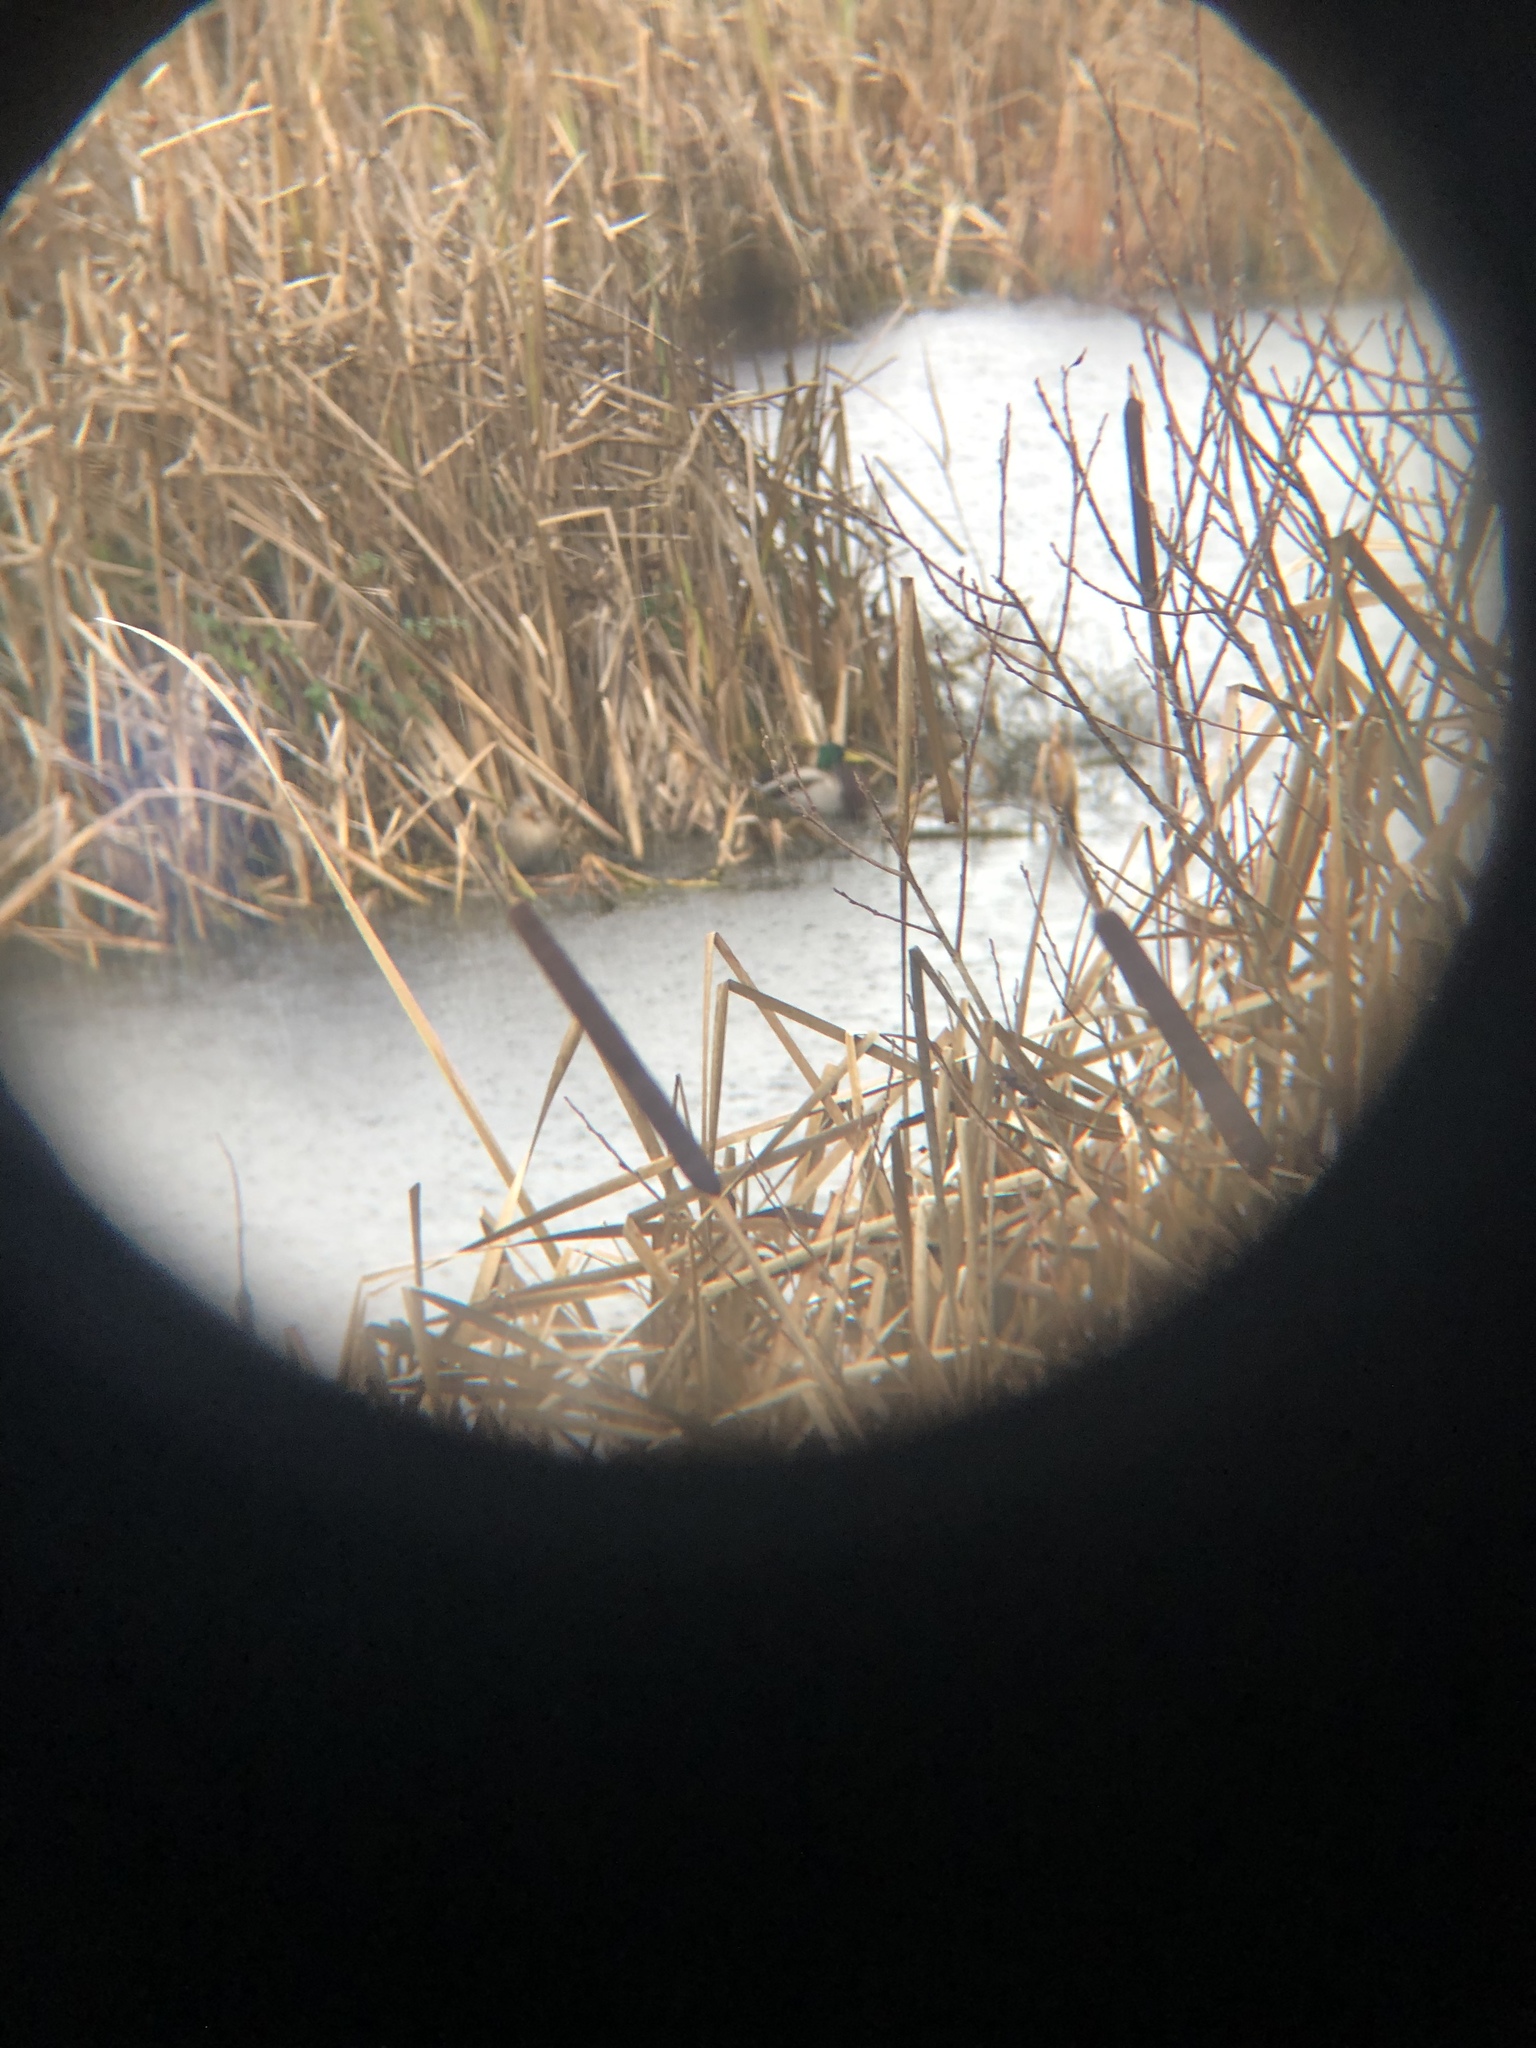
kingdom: Animalia
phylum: Chordata
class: Aves
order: Anseriformes
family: Anatidae
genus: Anas
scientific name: Anas platyrhynchos
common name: Mallard
